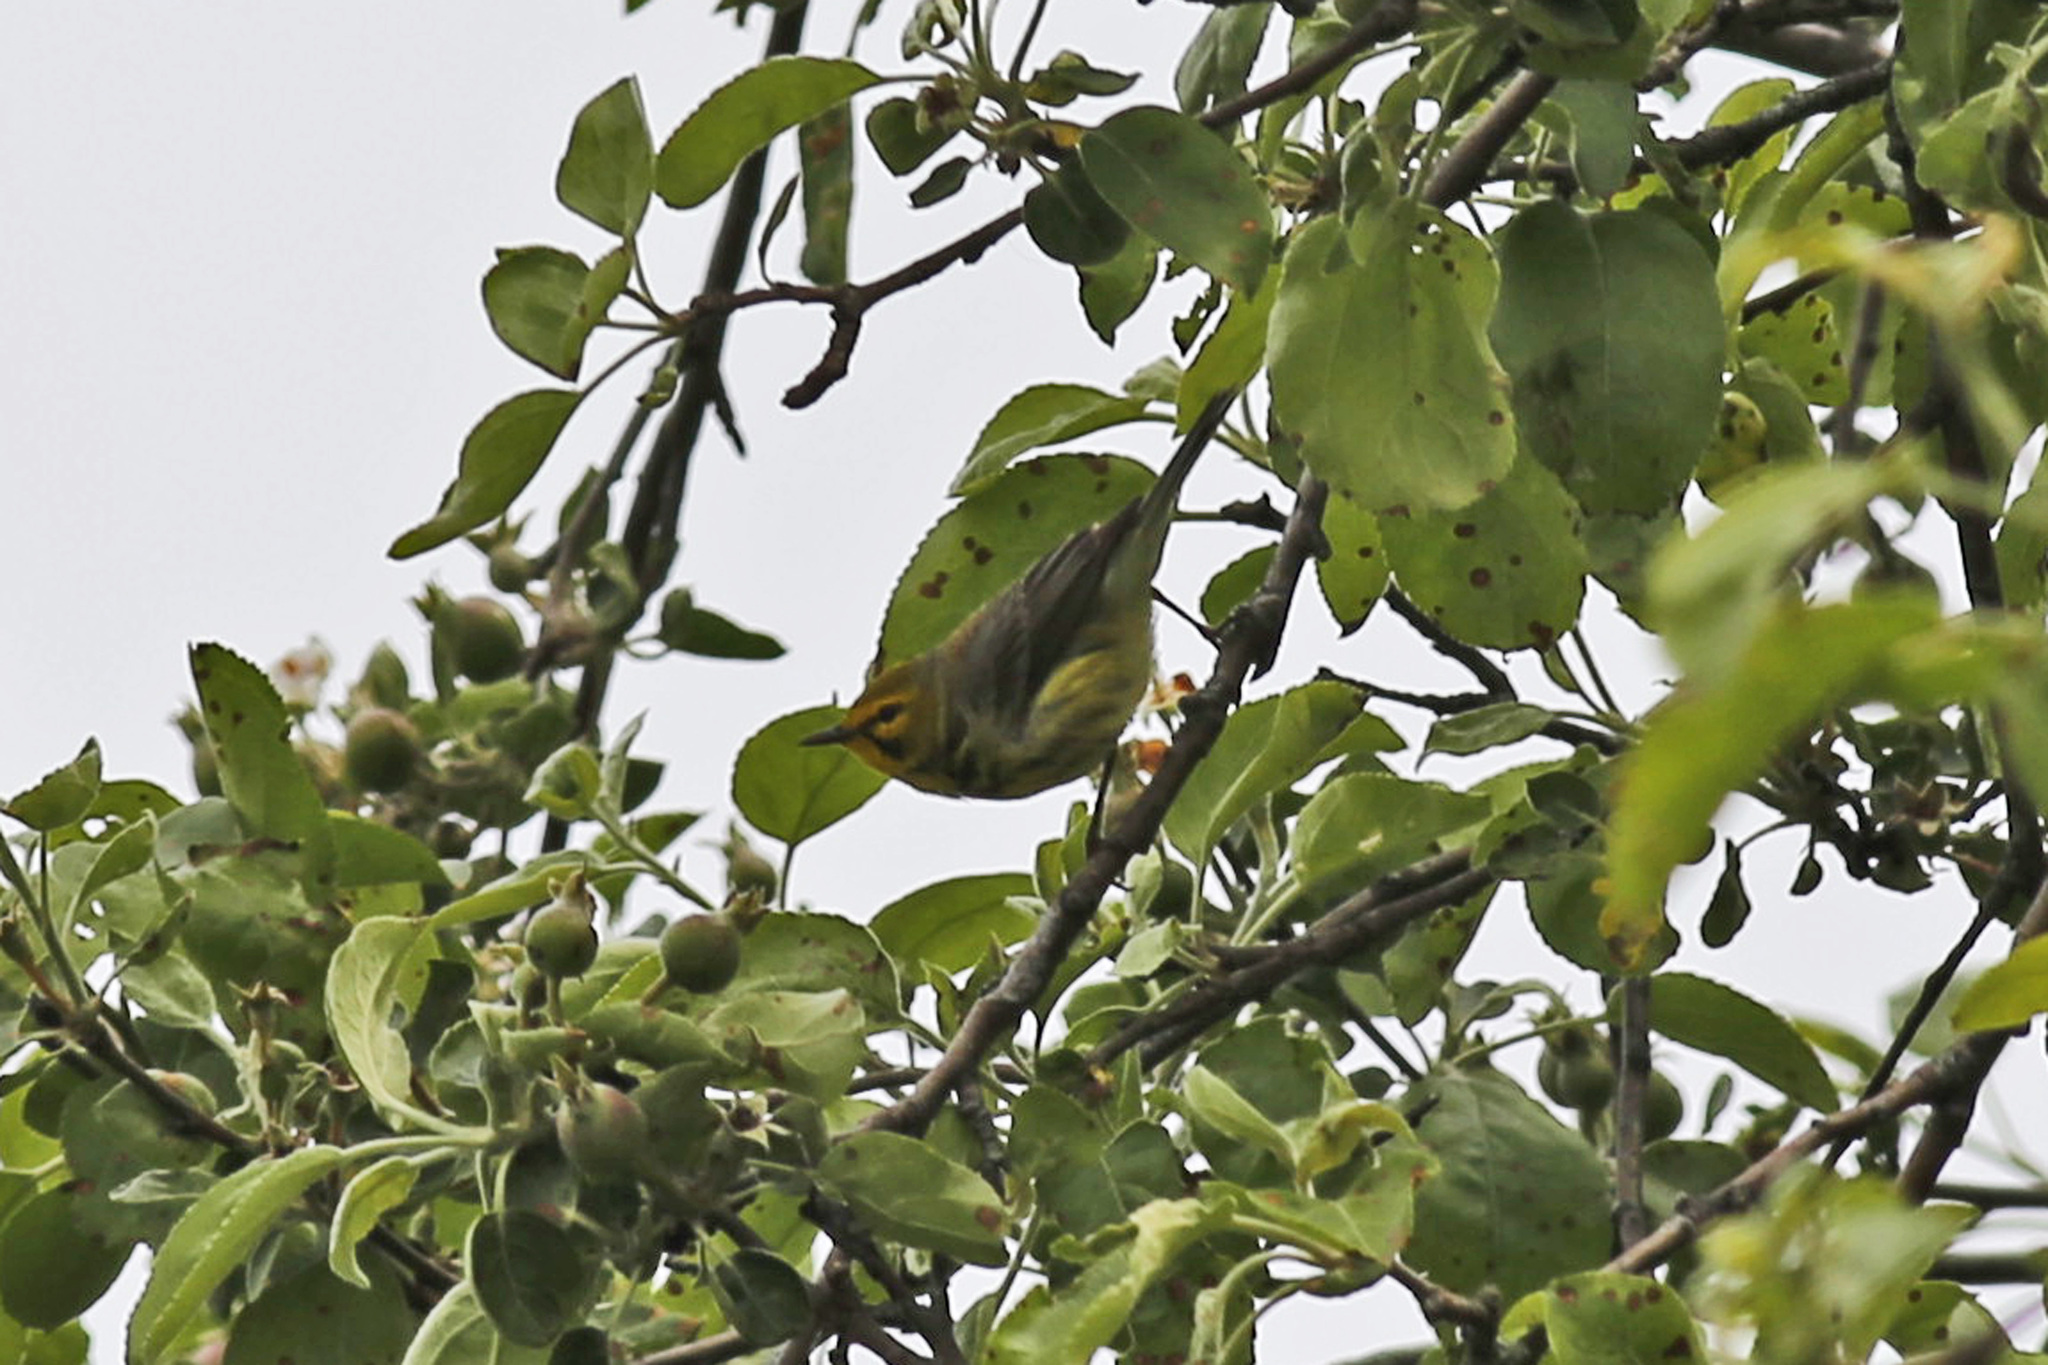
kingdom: Animalia
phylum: Chordata
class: Aves
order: Passeriformes
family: Parulidae
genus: Setophaga
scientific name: Setophaga discolor
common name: Prairie warbler
